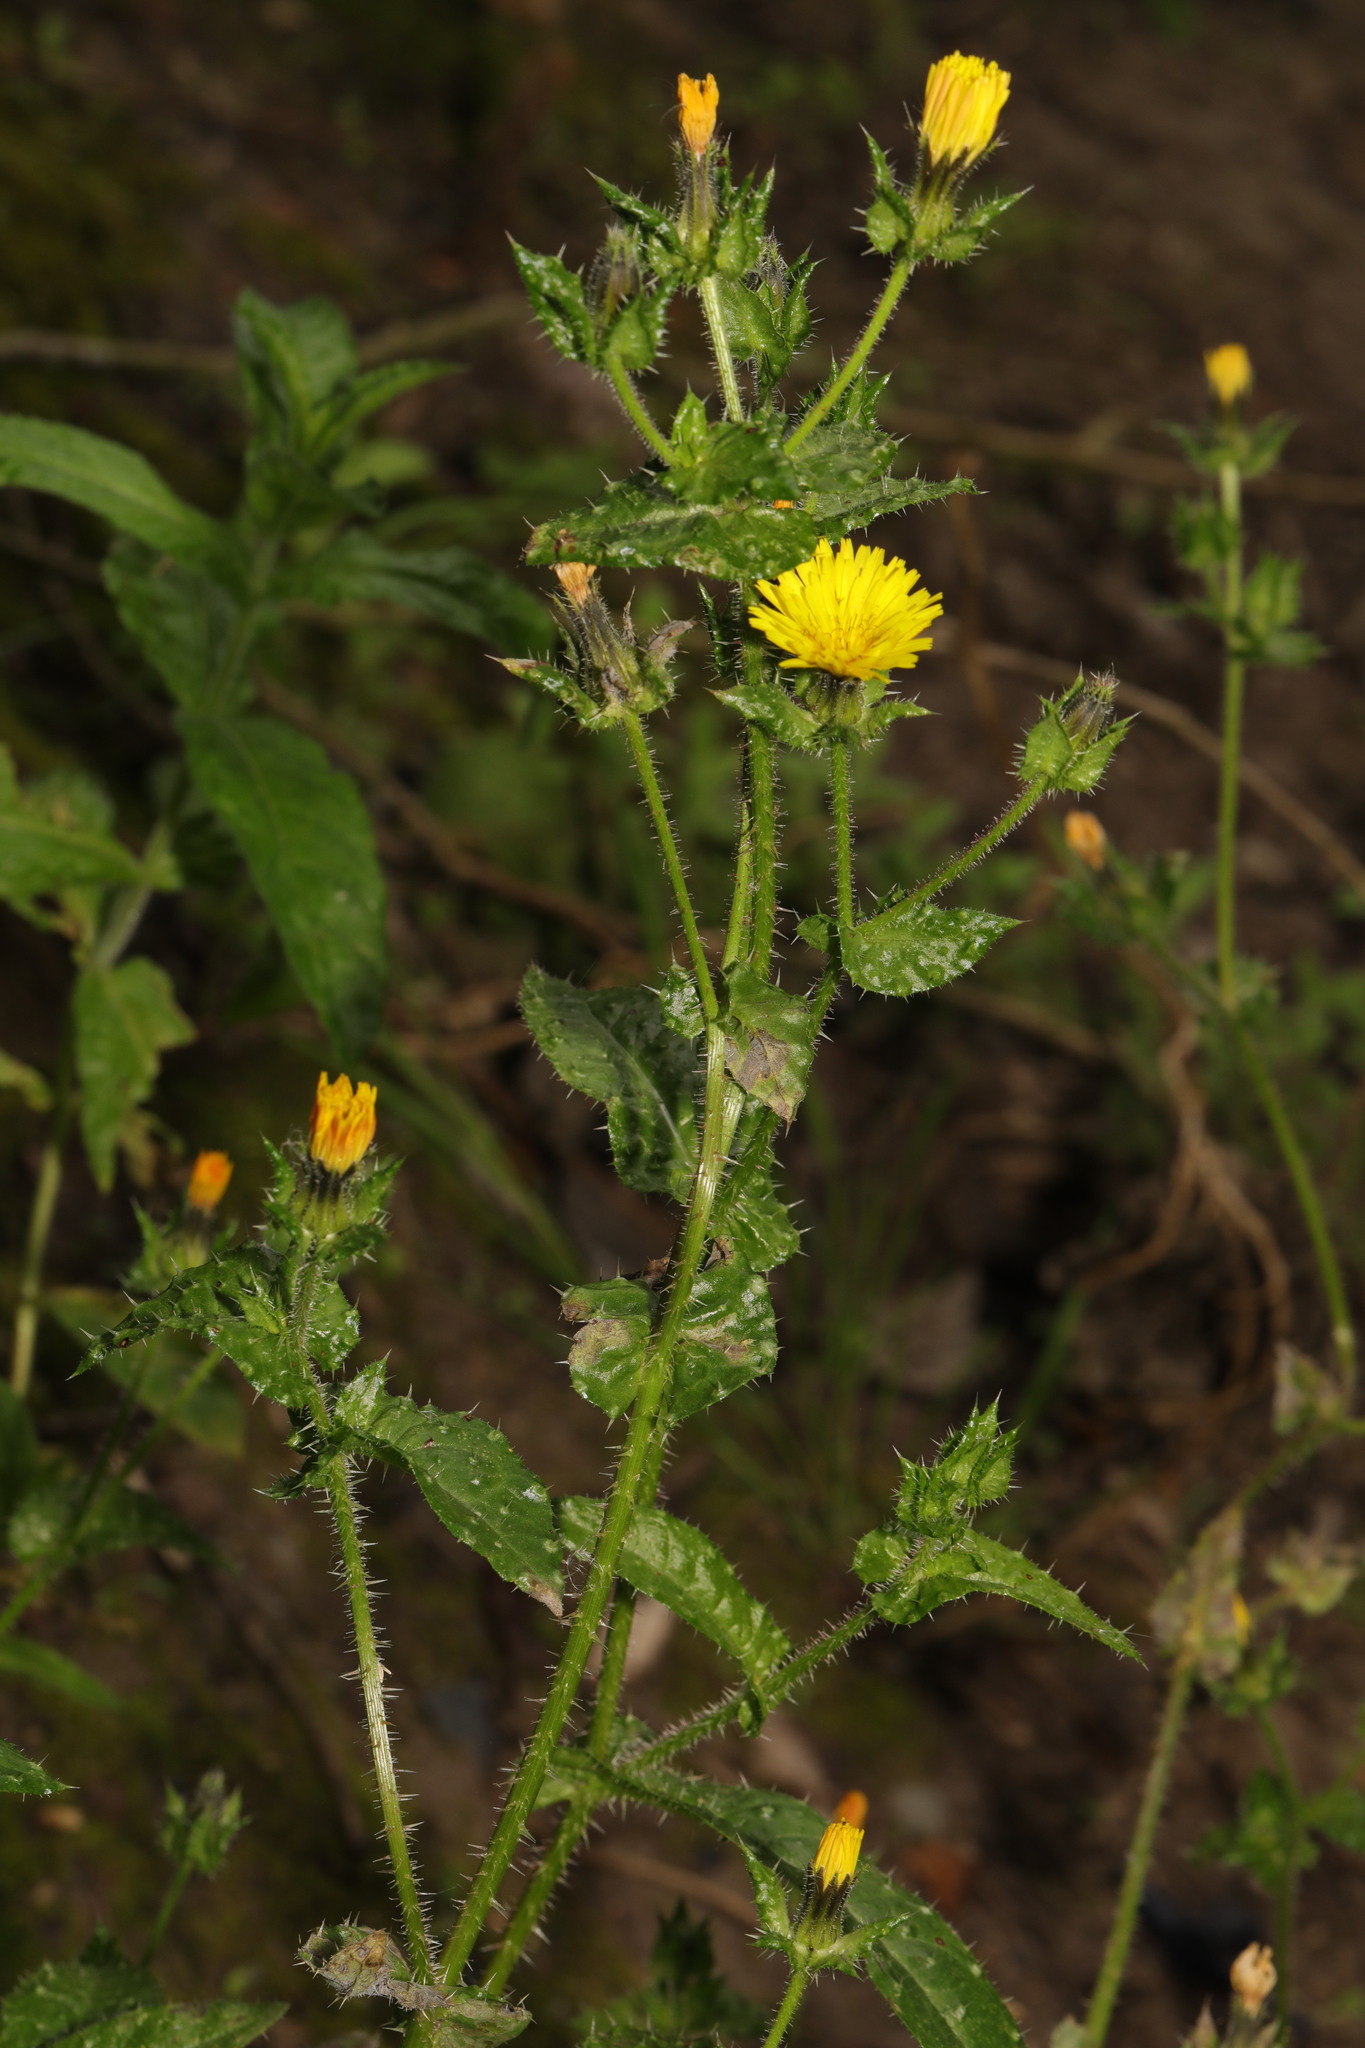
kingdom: Plantae
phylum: Tracheophyta
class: Magnoliopsida
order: Asterales
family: Asteraceae
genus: Helminthotheca
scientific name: Helminthotheca echioides
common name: Ox-tongue
